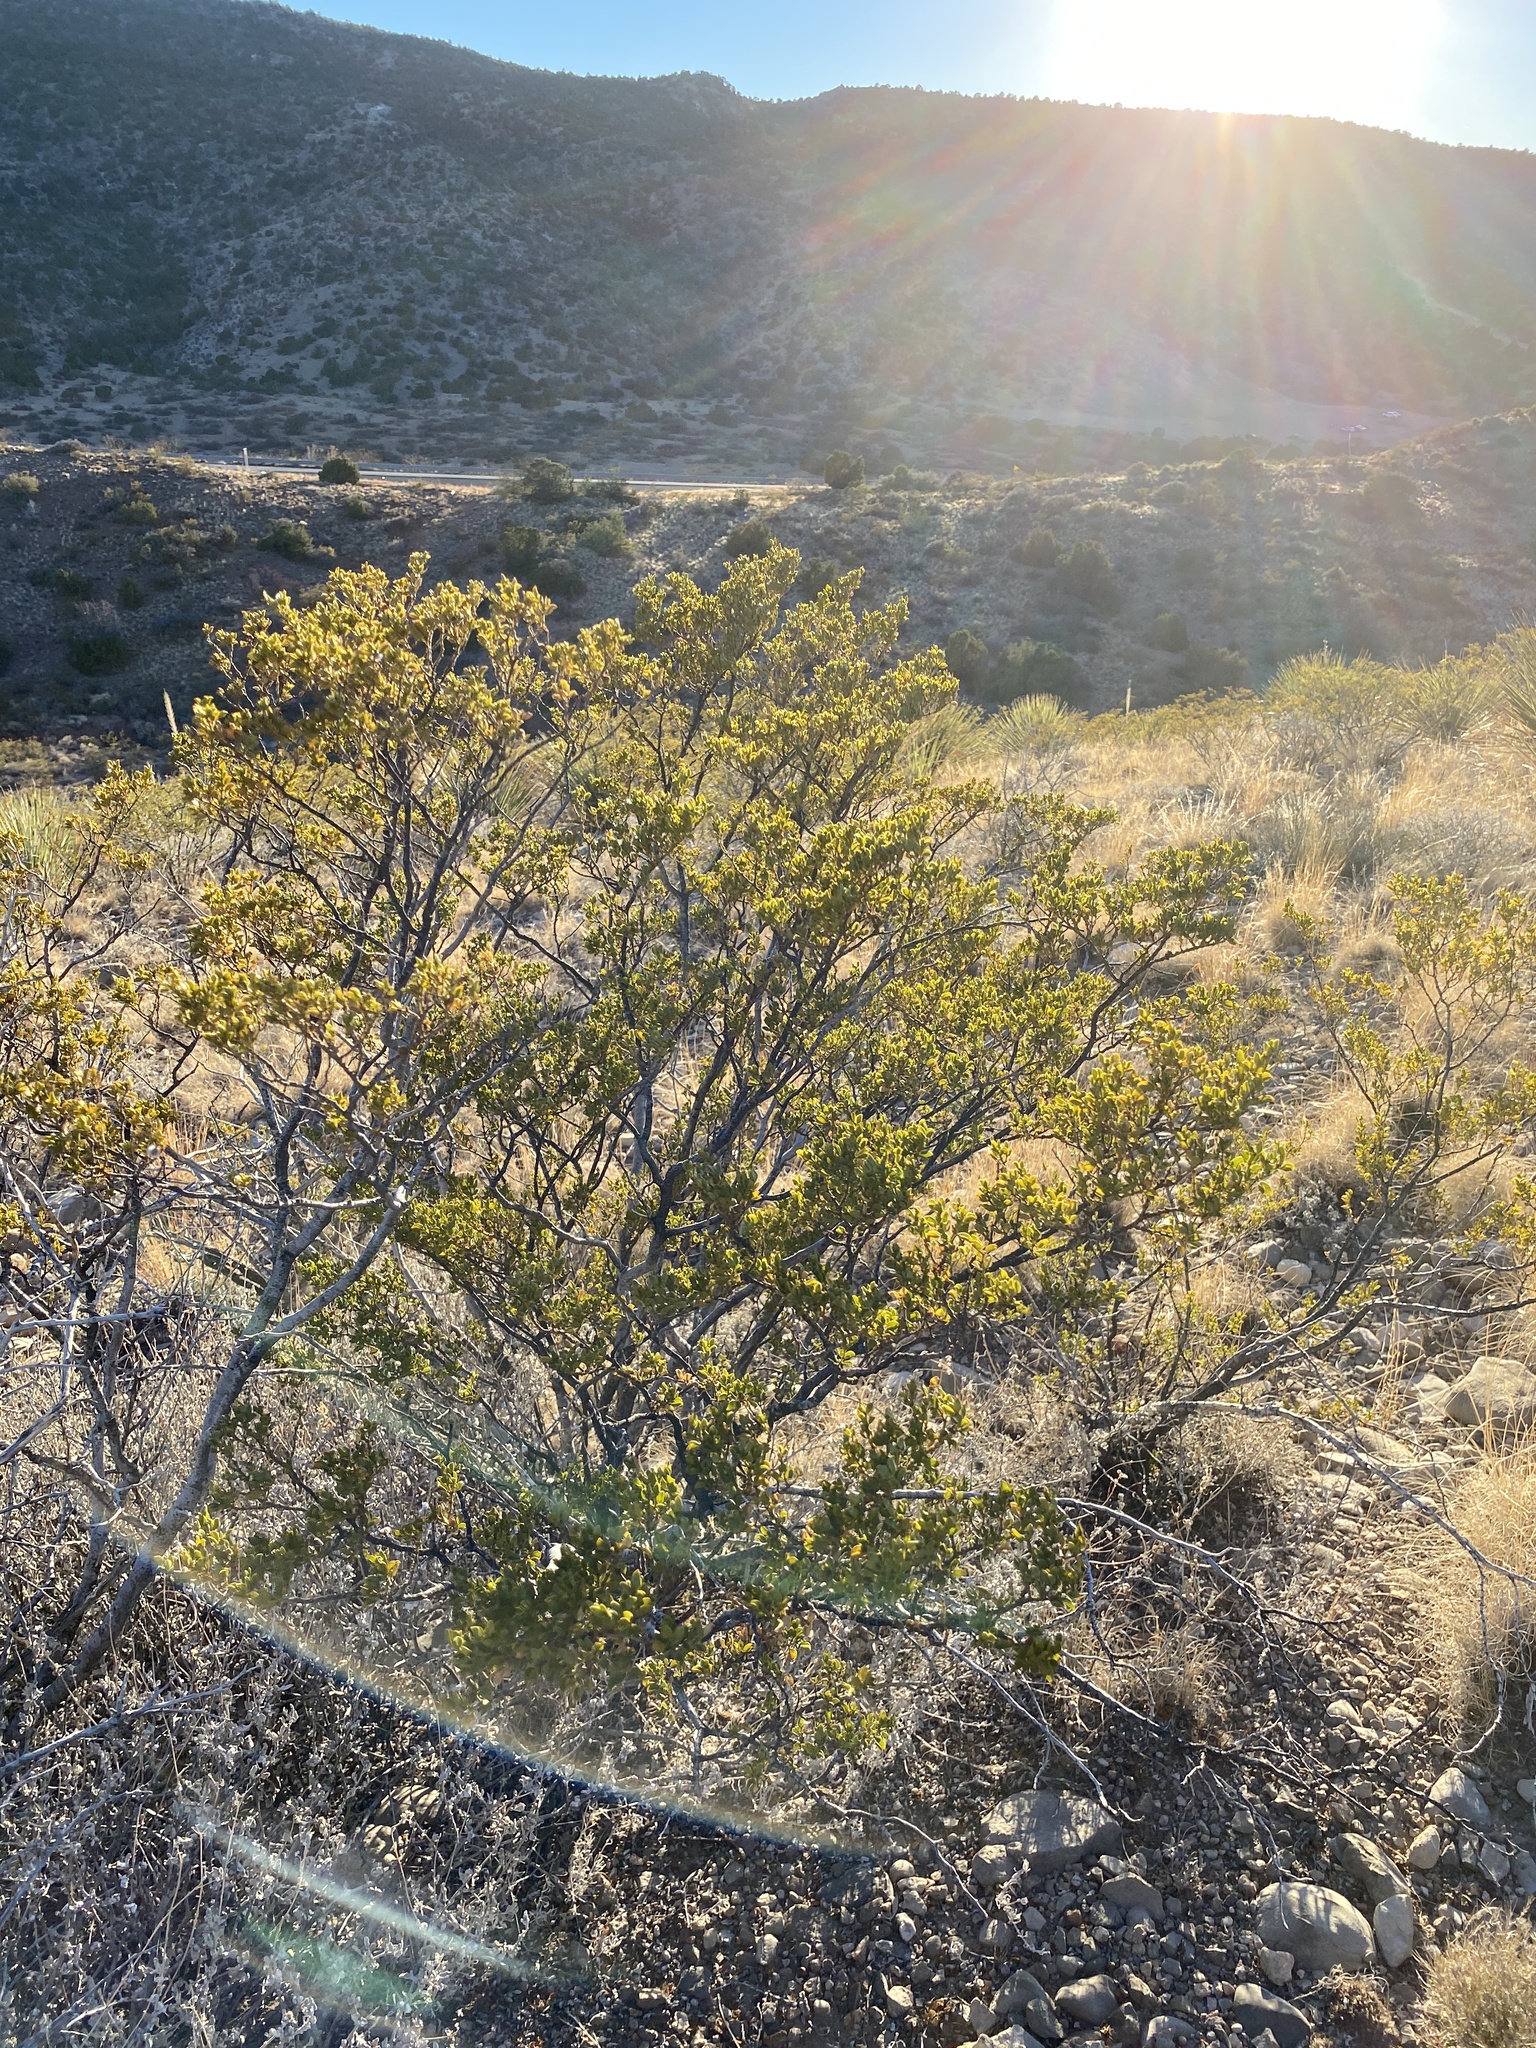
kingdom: Plantae
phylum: Tracheophyta
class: Magnoliopsida
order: Zygophyllales
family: Zygophyllaceae
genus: Larrea
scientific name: Larrea tridentata
